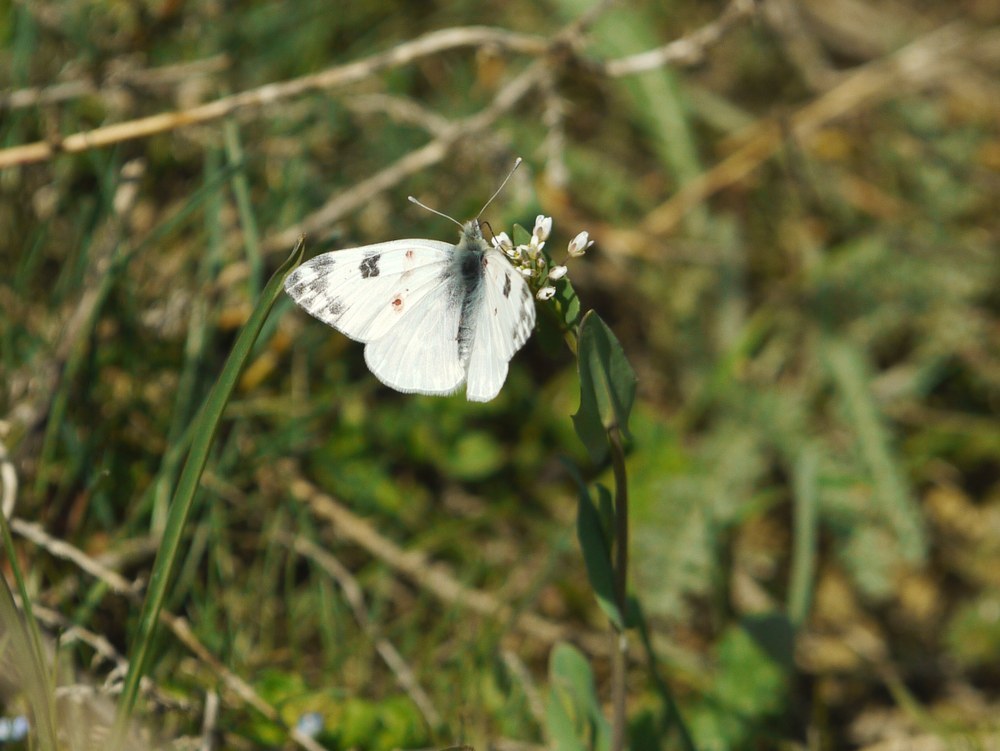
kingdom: Animalia
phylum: Arthropoda
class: Insecta
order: Lepidoptera
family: Pieridae
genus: Pontia
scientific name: Pontia edusa
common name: Eastern bath white
